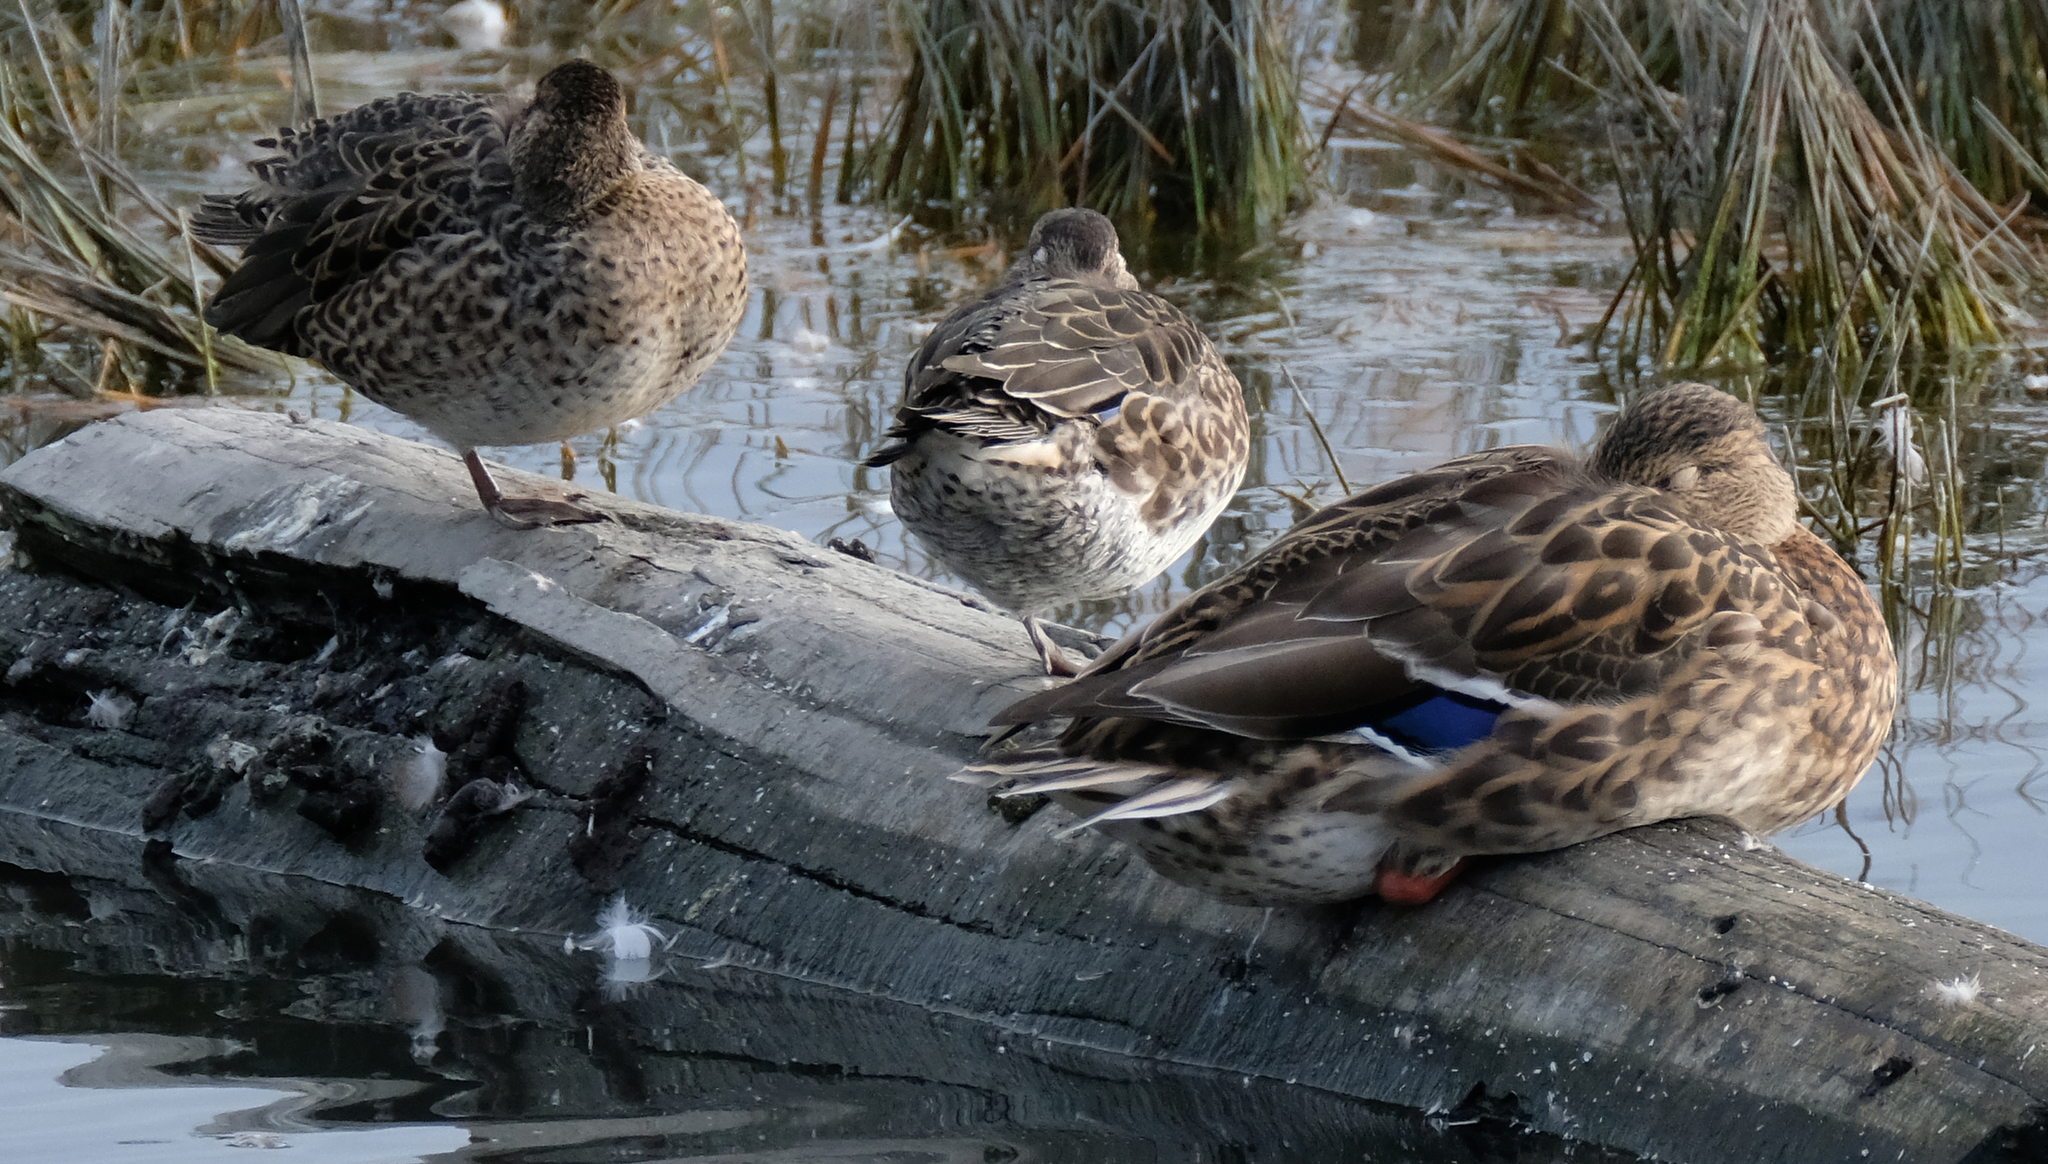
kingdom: Animalia
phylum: Chordata
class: Aves
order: Anseriformes
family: Anatidae
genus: Anas
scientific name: Anas platyrhynchos
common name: Mallard
